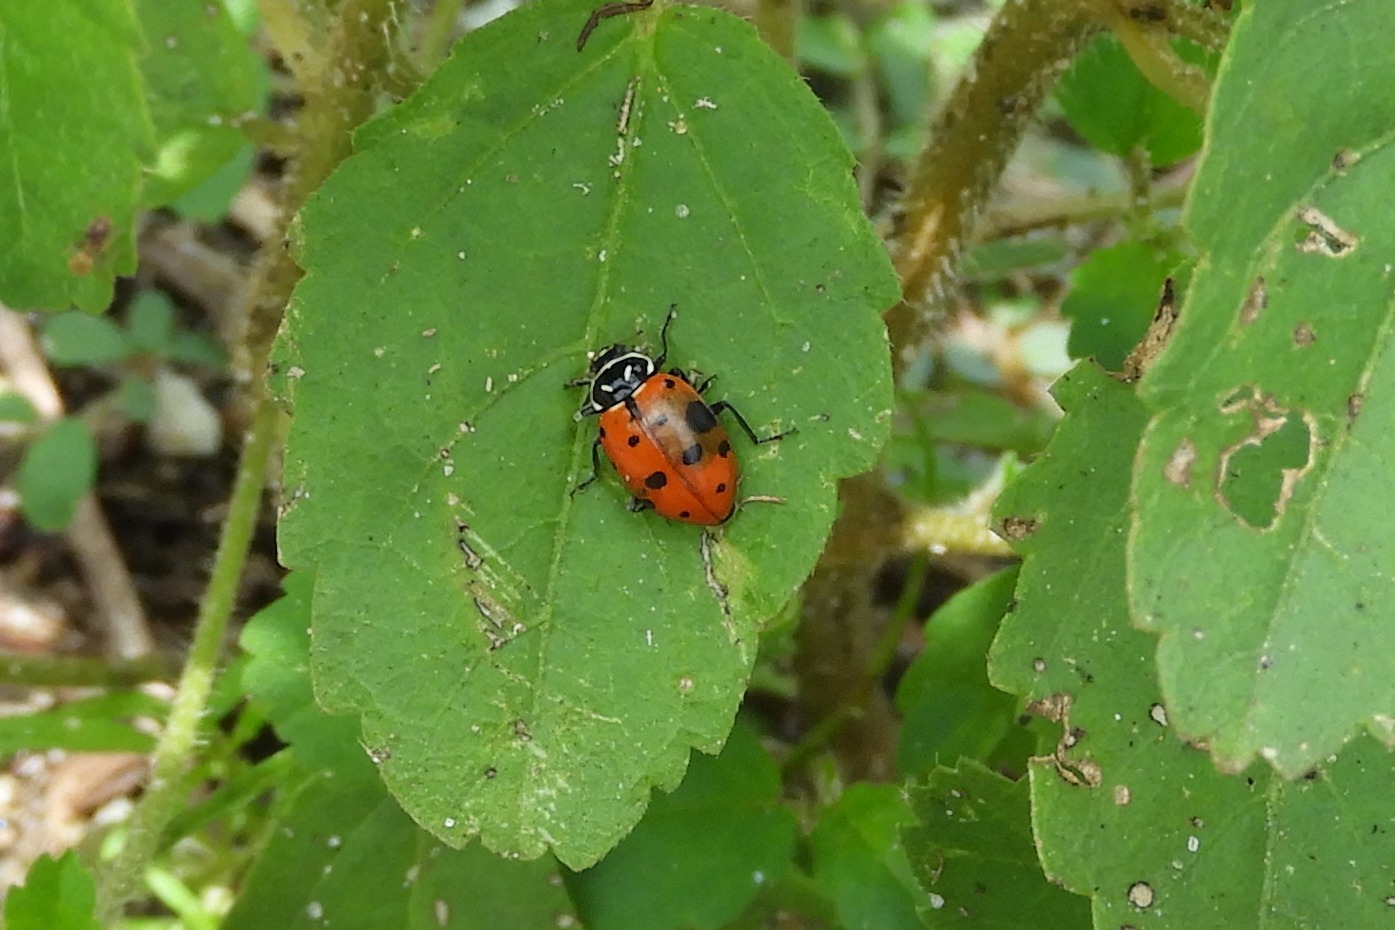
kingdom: Animalia
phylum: Arthropoda
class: Insecta
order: Coleoptera
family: Coccinellidae
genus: Hippodamia
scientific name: Hippodamia convergens
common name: Convergent lady beetle
